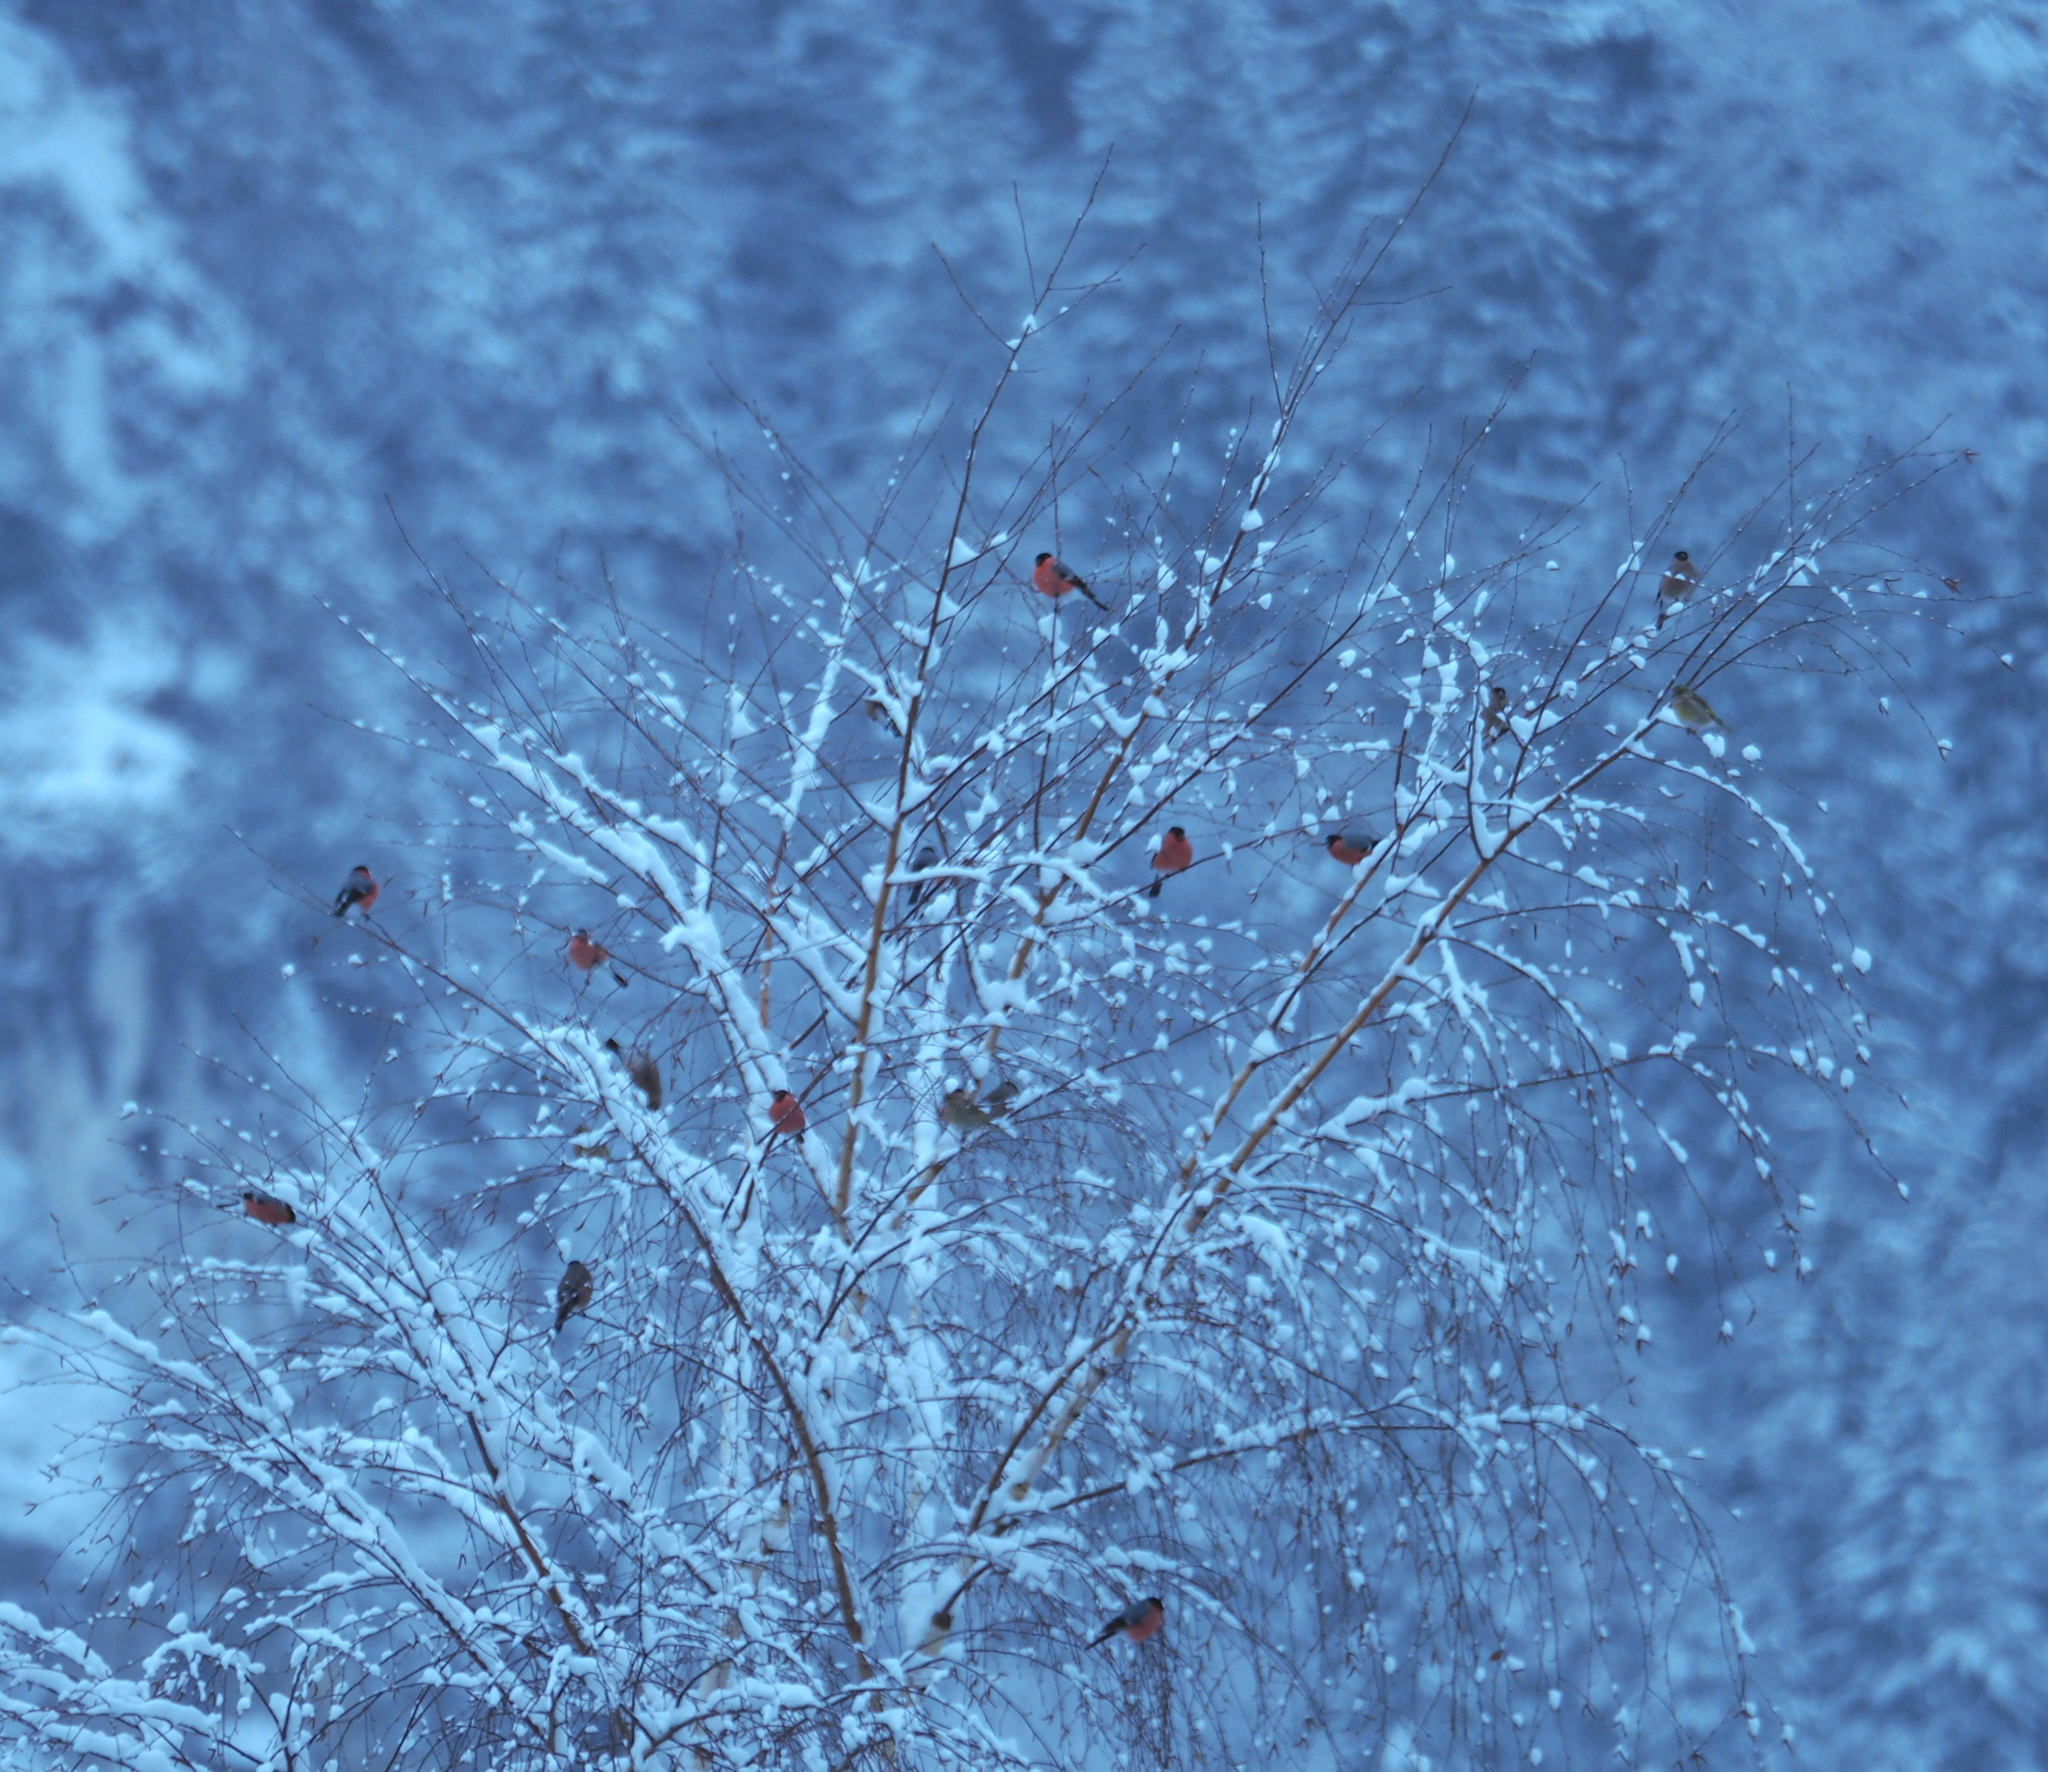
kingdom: Animalia
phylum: Chordata
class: Aves
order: Passeriformes
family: Fringillidae
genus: Pyrrhula
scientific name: Pyrrhula pyrrhula
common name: Eurasian bullfinch
